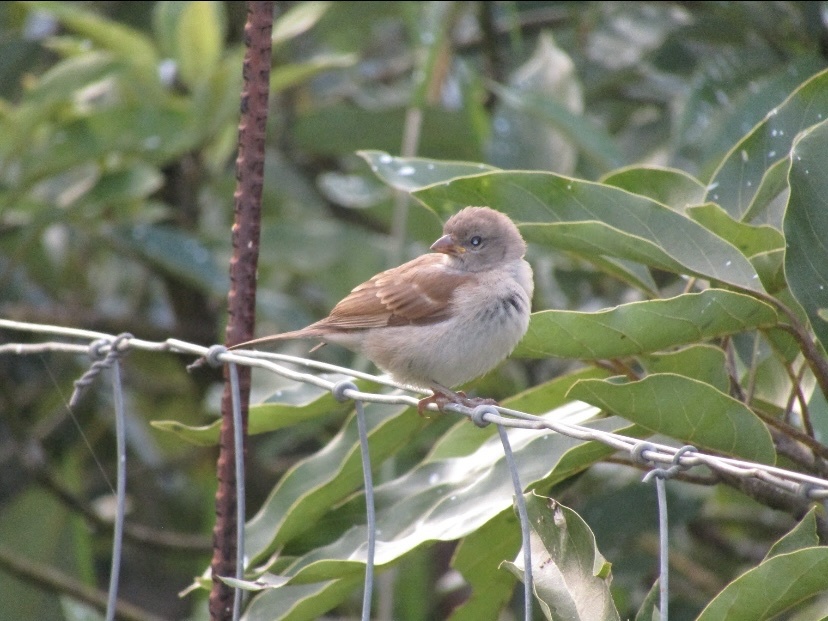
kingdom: Animalia
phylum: Chordata
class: Aves
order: Passeriformes
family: Passeridae
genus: Passer
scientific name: Passer diffusus
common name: Southern grey-headed sparrow
